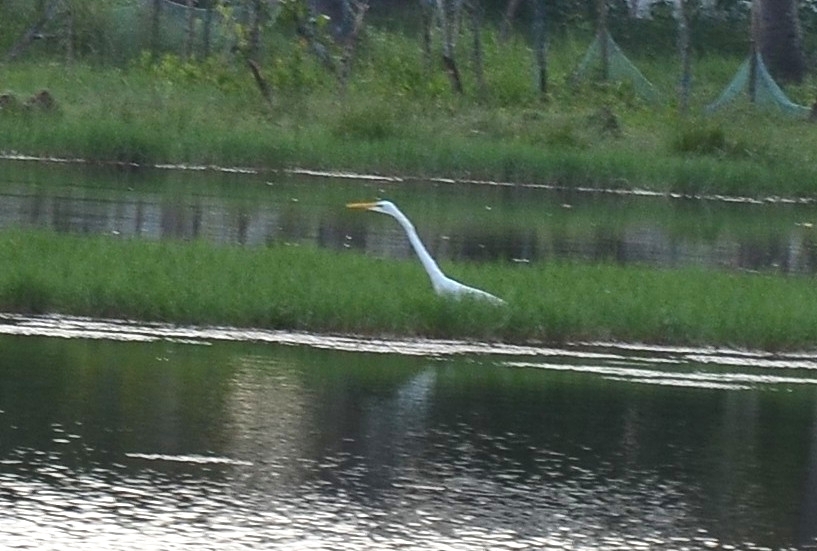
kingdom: Animalia
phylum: Chordata
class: Aves
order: Pelecaniformes
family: Ardeidae
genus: Ardea
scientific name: Ardea alba
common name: Great egret
